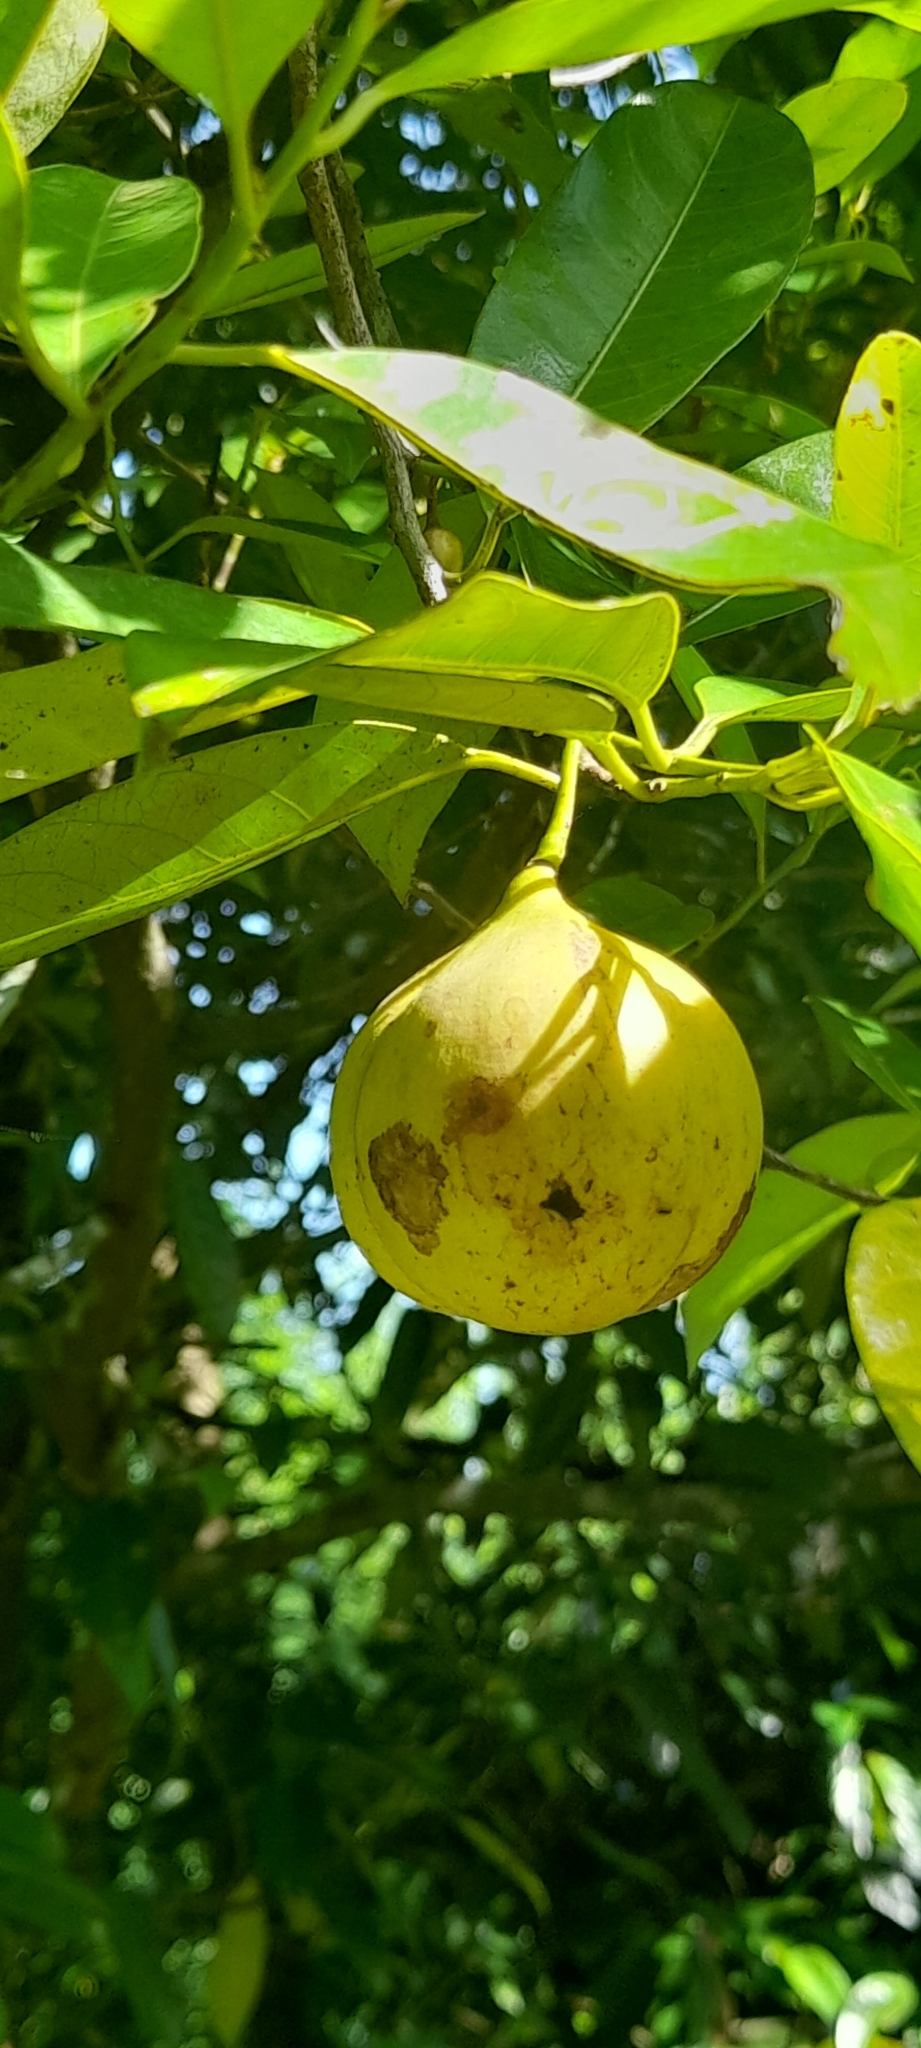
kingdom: Plantae
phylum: Tracheophyta
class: Magnoliopsida
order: Magnoliales
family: Myristicaceae
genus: Myristica
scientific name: Myristica fragrans
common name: Nutmeg
